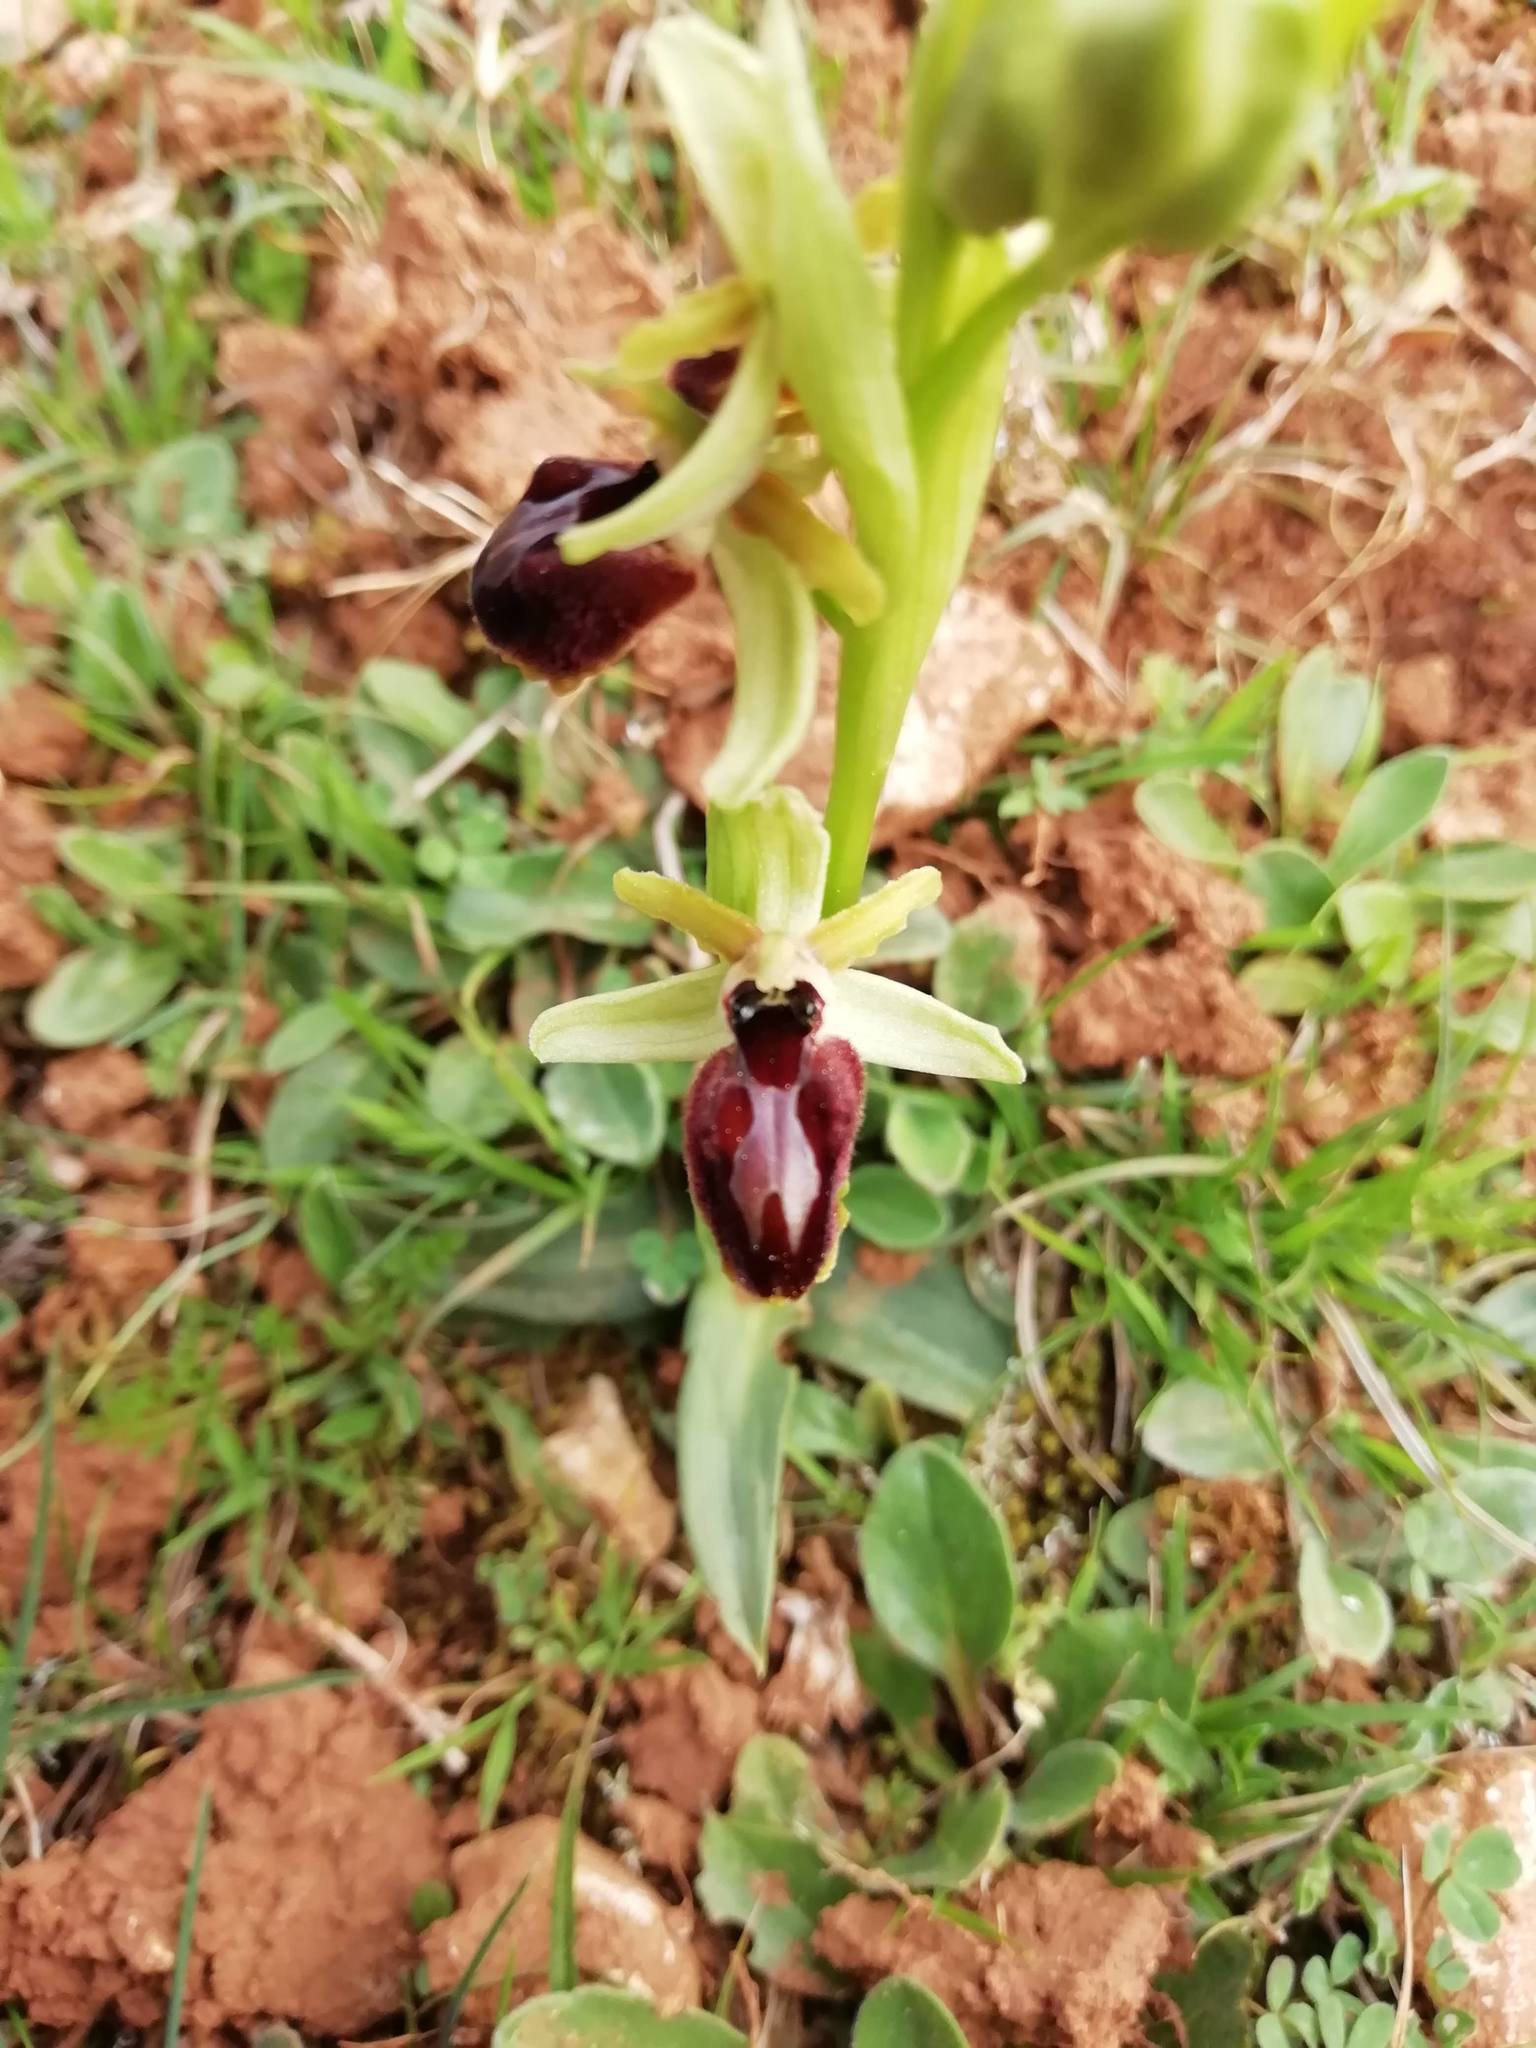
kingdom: Plantae
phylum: Tracheophyta
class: Liliopsida
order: Asparagales
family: Orchidaceae
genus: Ophrys
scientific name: Ophrys arachnitiformis
